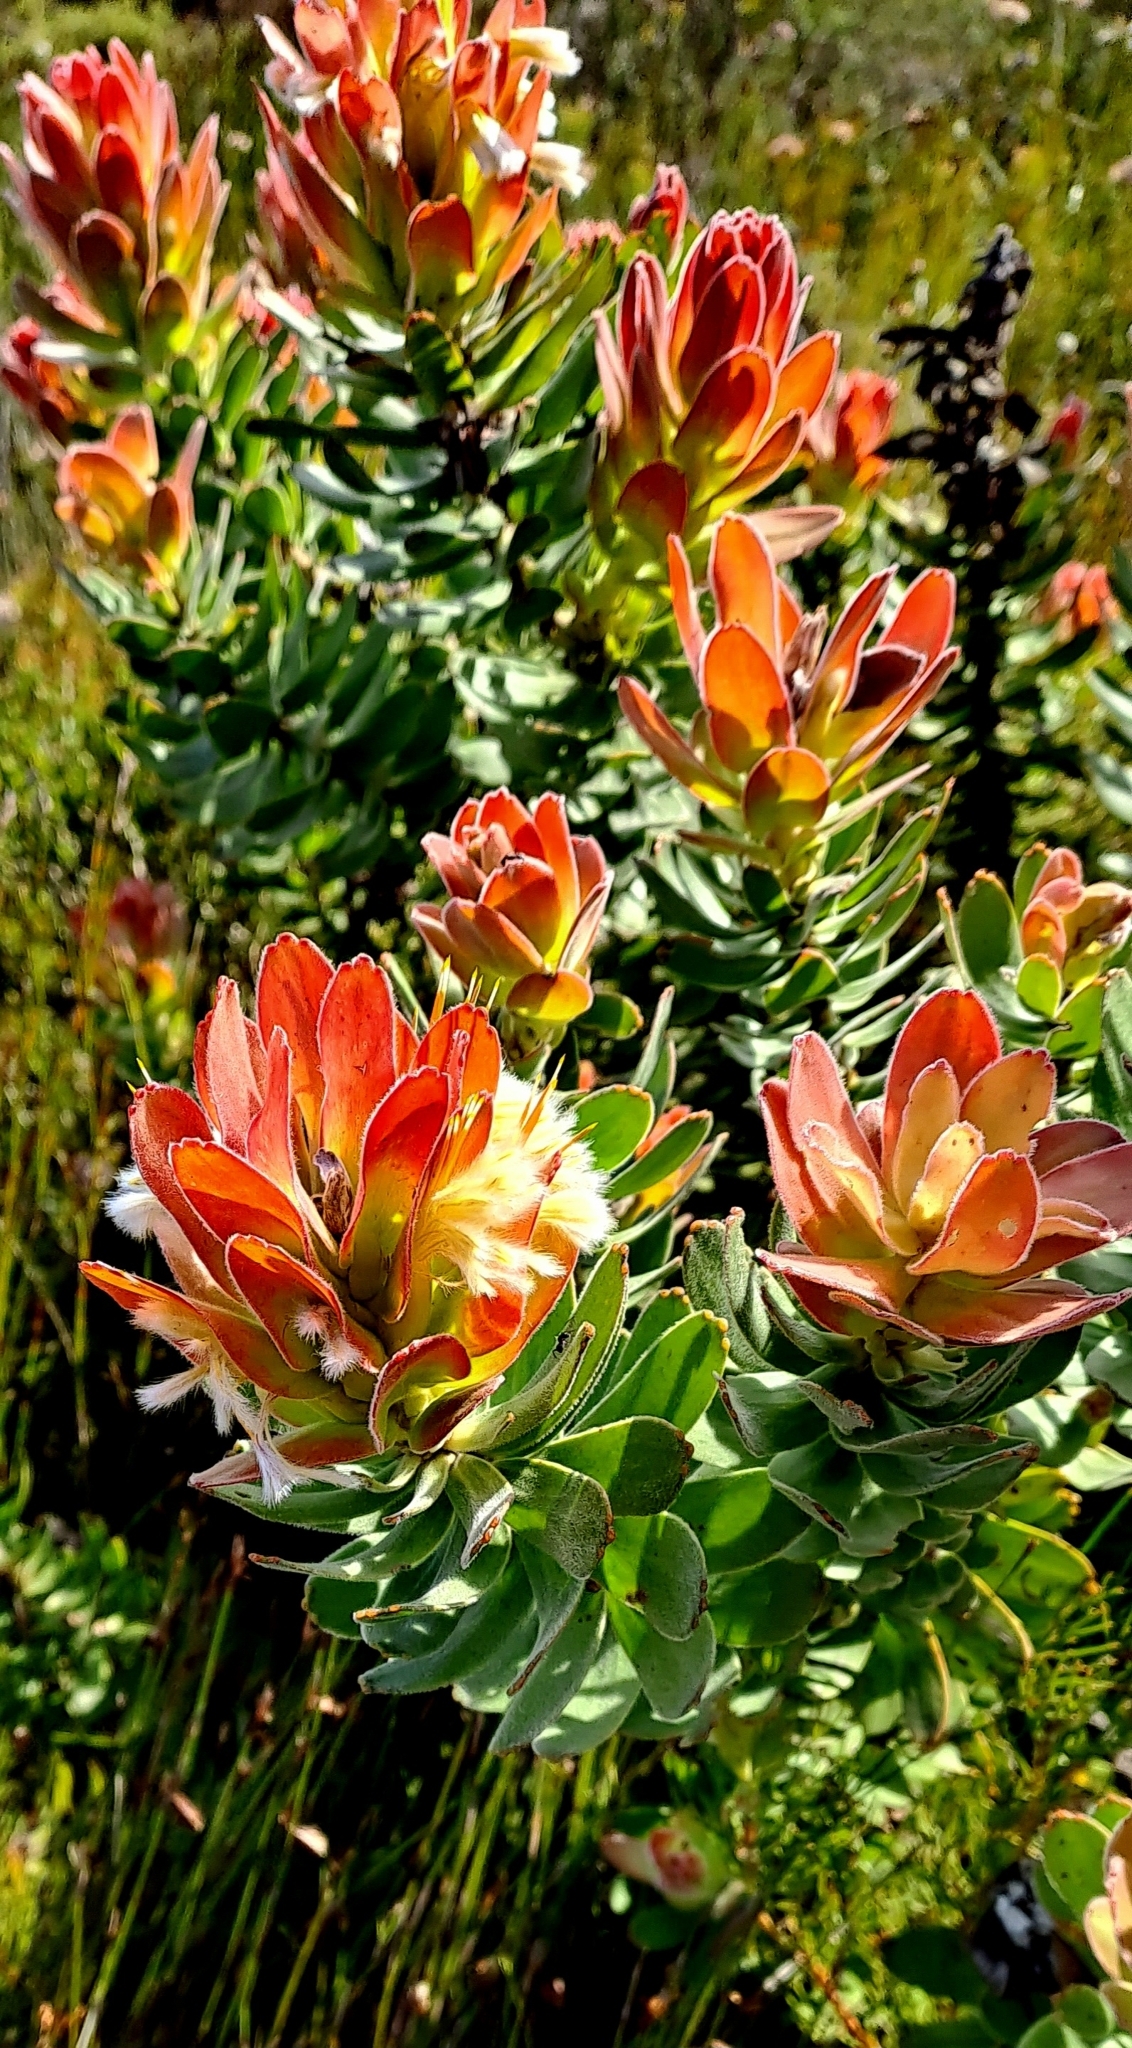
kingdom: Plantae
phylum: Tracheophyta
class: Magnoliopsida
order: Proteales
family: Proteaceae
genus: Mimetes
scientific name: Mimetes cucullatus
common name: Common pagoda
